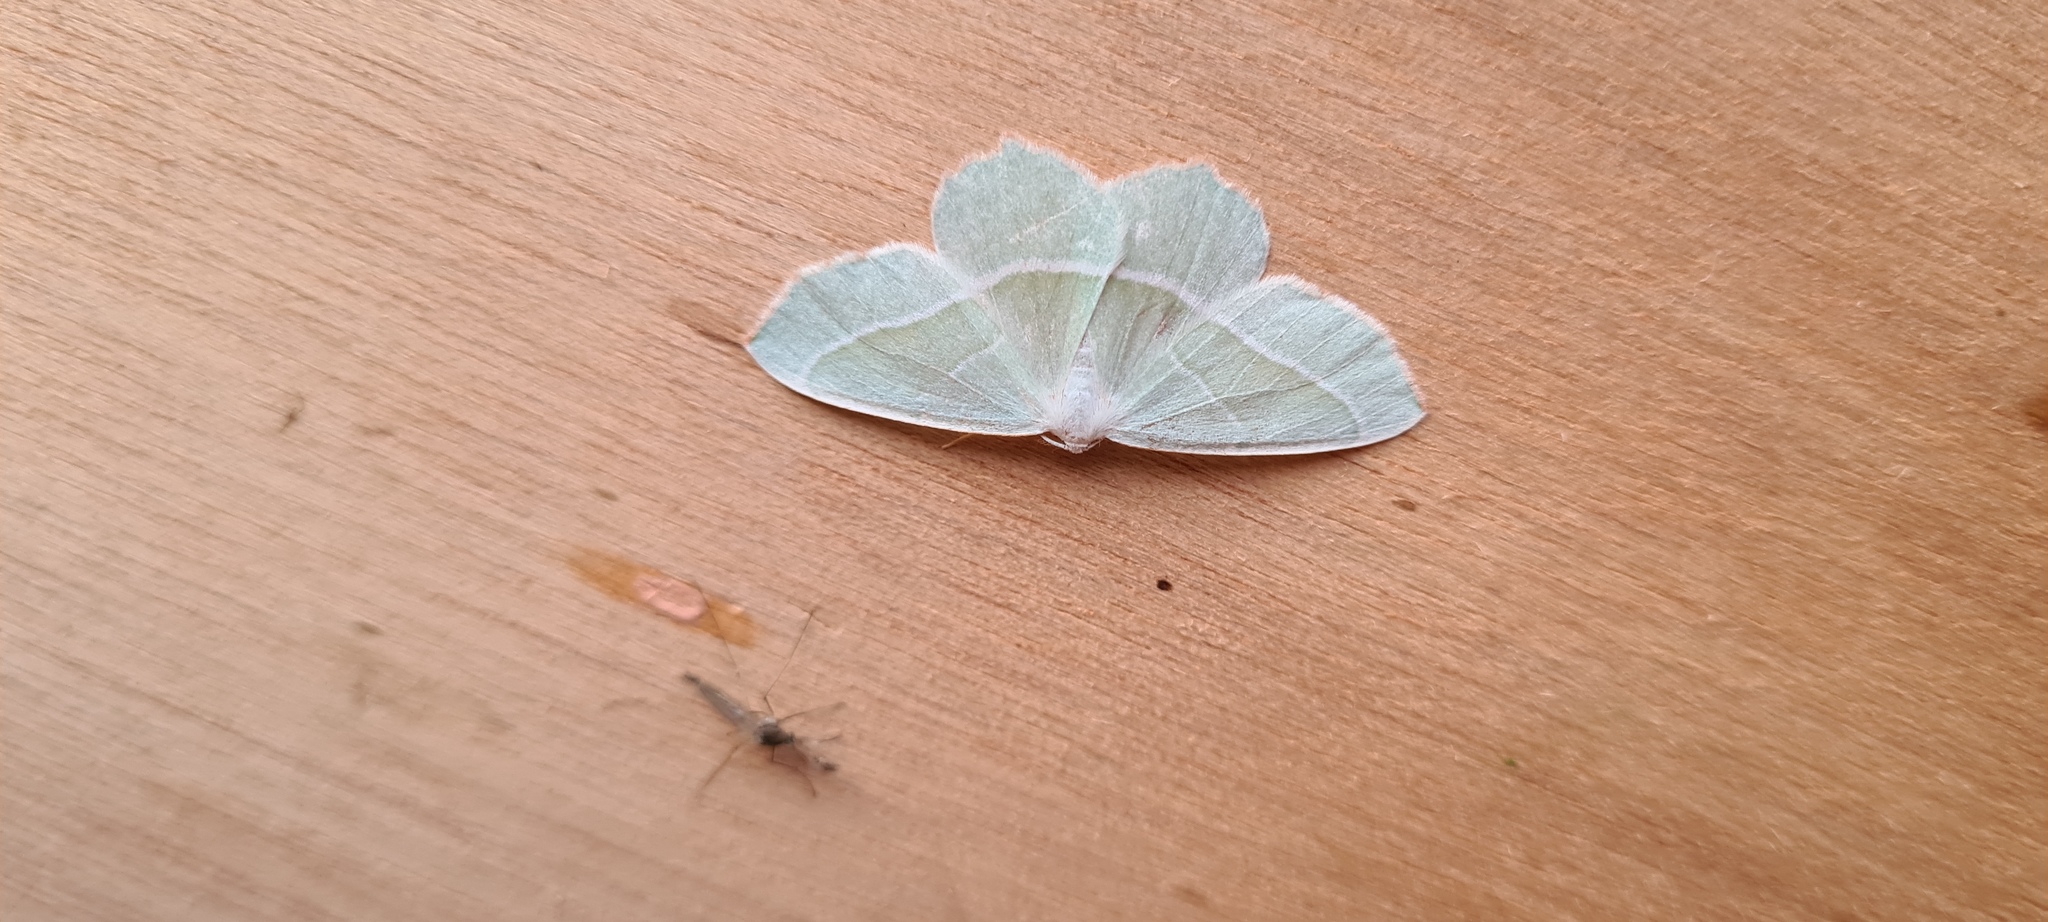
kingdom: Animalia
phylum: Arthropoda
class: Insecta
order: Lepidoptera
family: Geometridae
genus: Campaea
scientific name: Campaea margaritaria
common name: Light emerald
